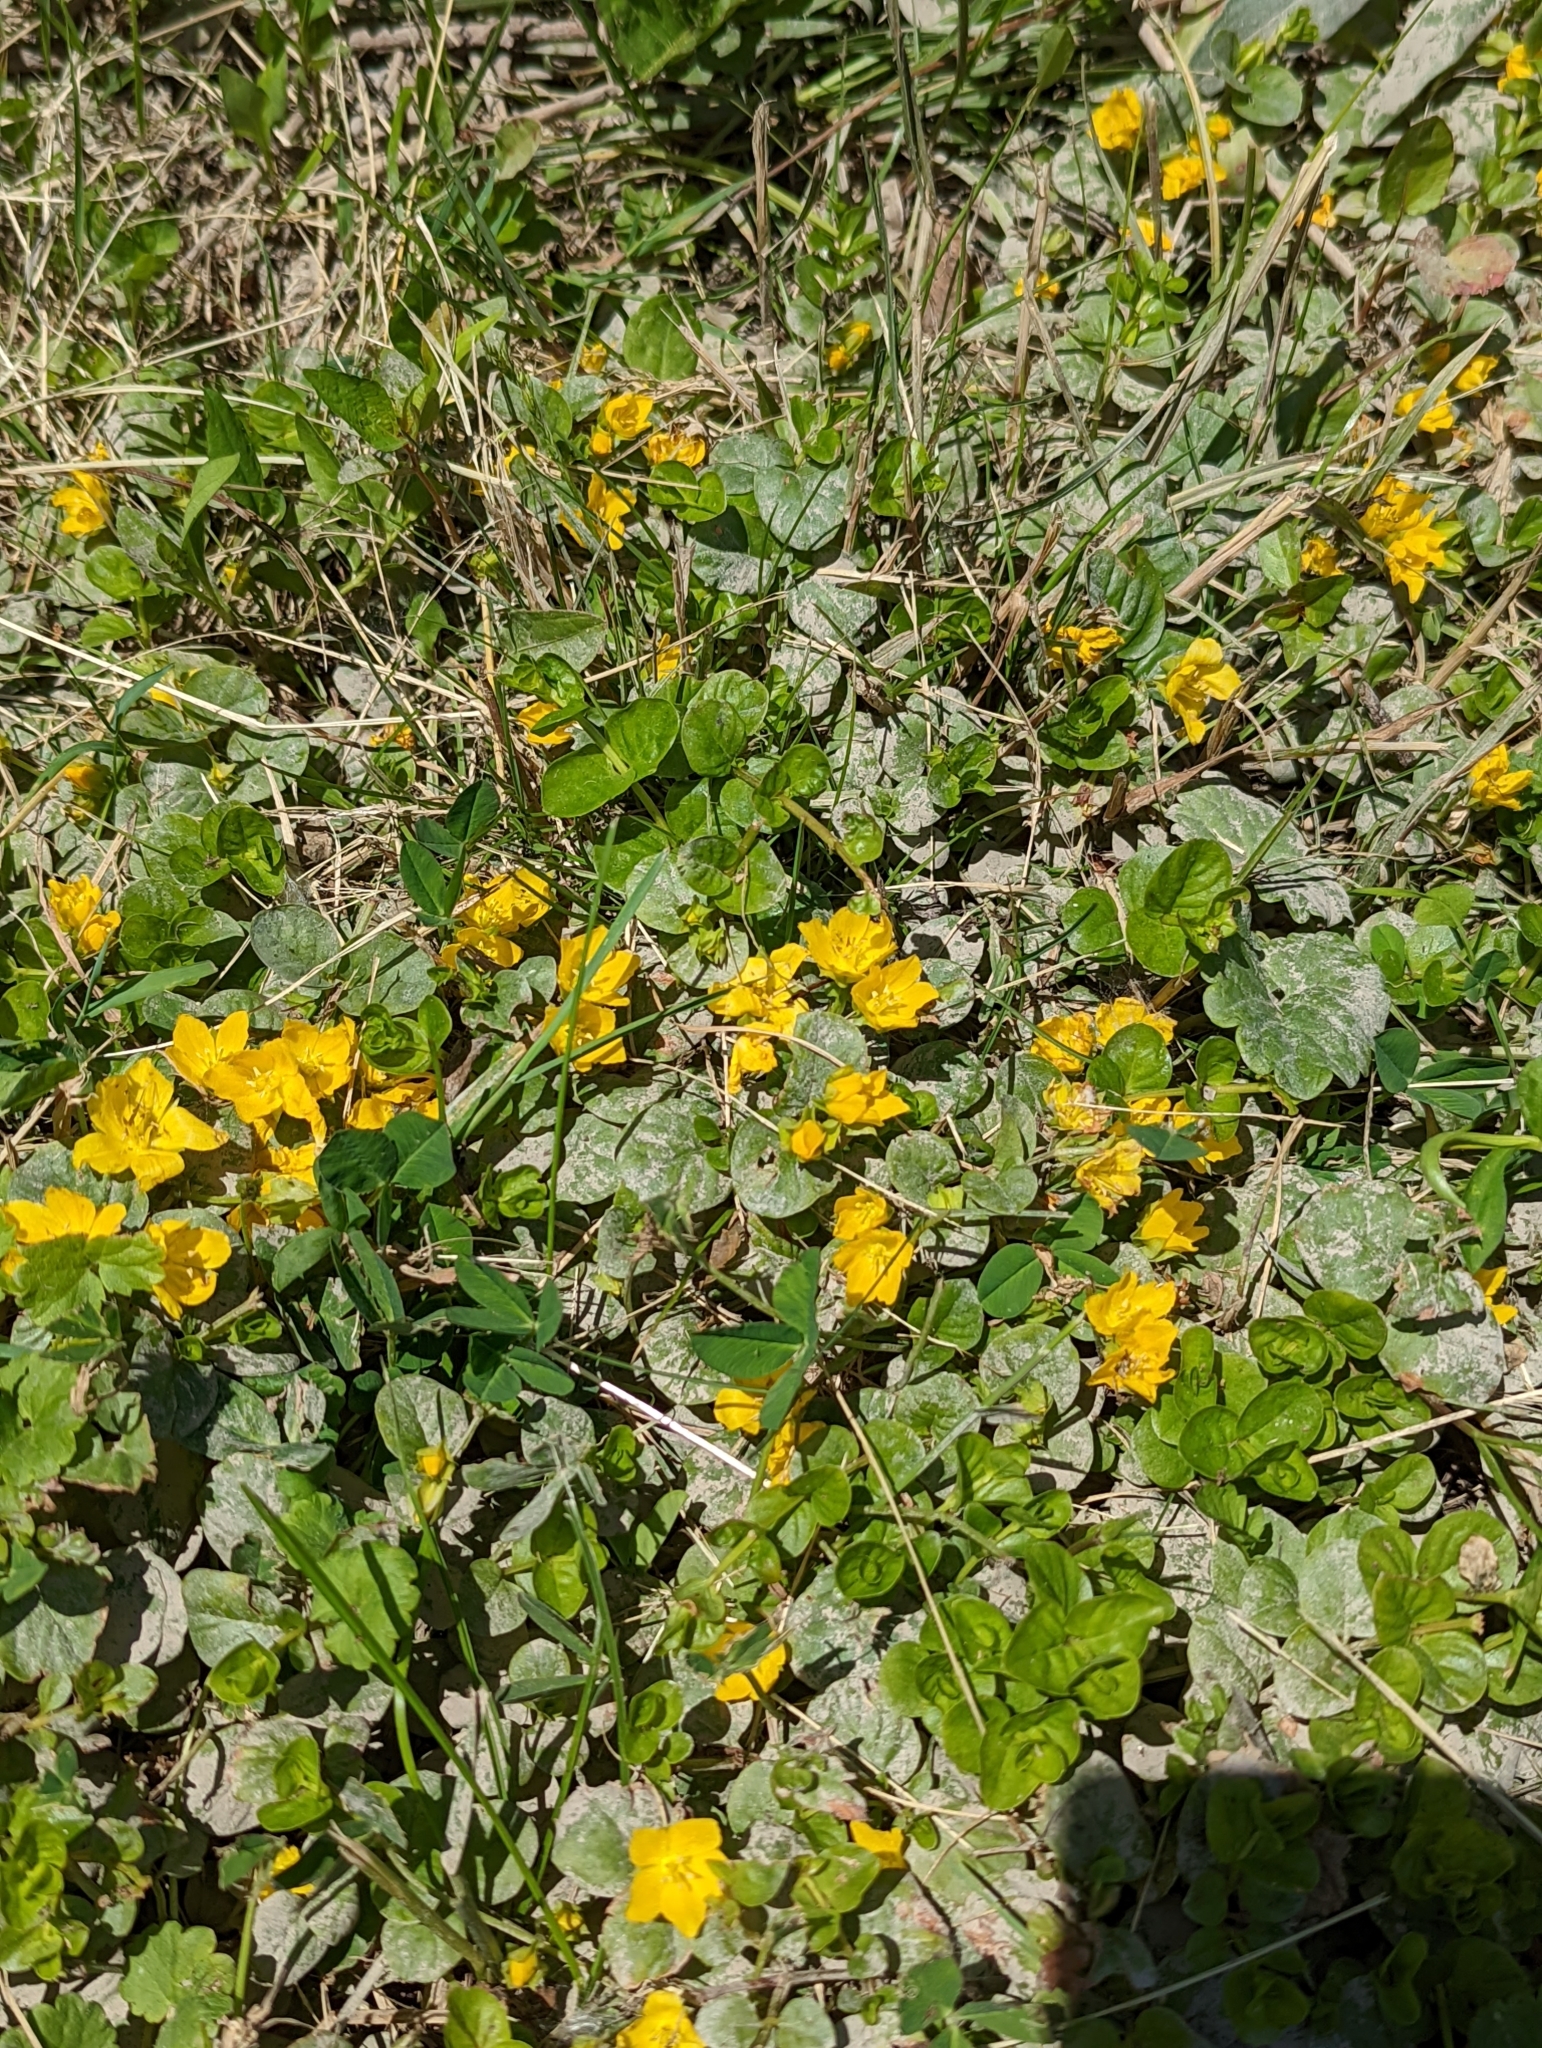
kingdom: Plantae
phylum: Tracheophyta
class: Magnoliopsida
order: Ericales
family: Primulaceae
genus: Lysimachia
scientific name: Lysimachia nummularia
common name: Moneywort
